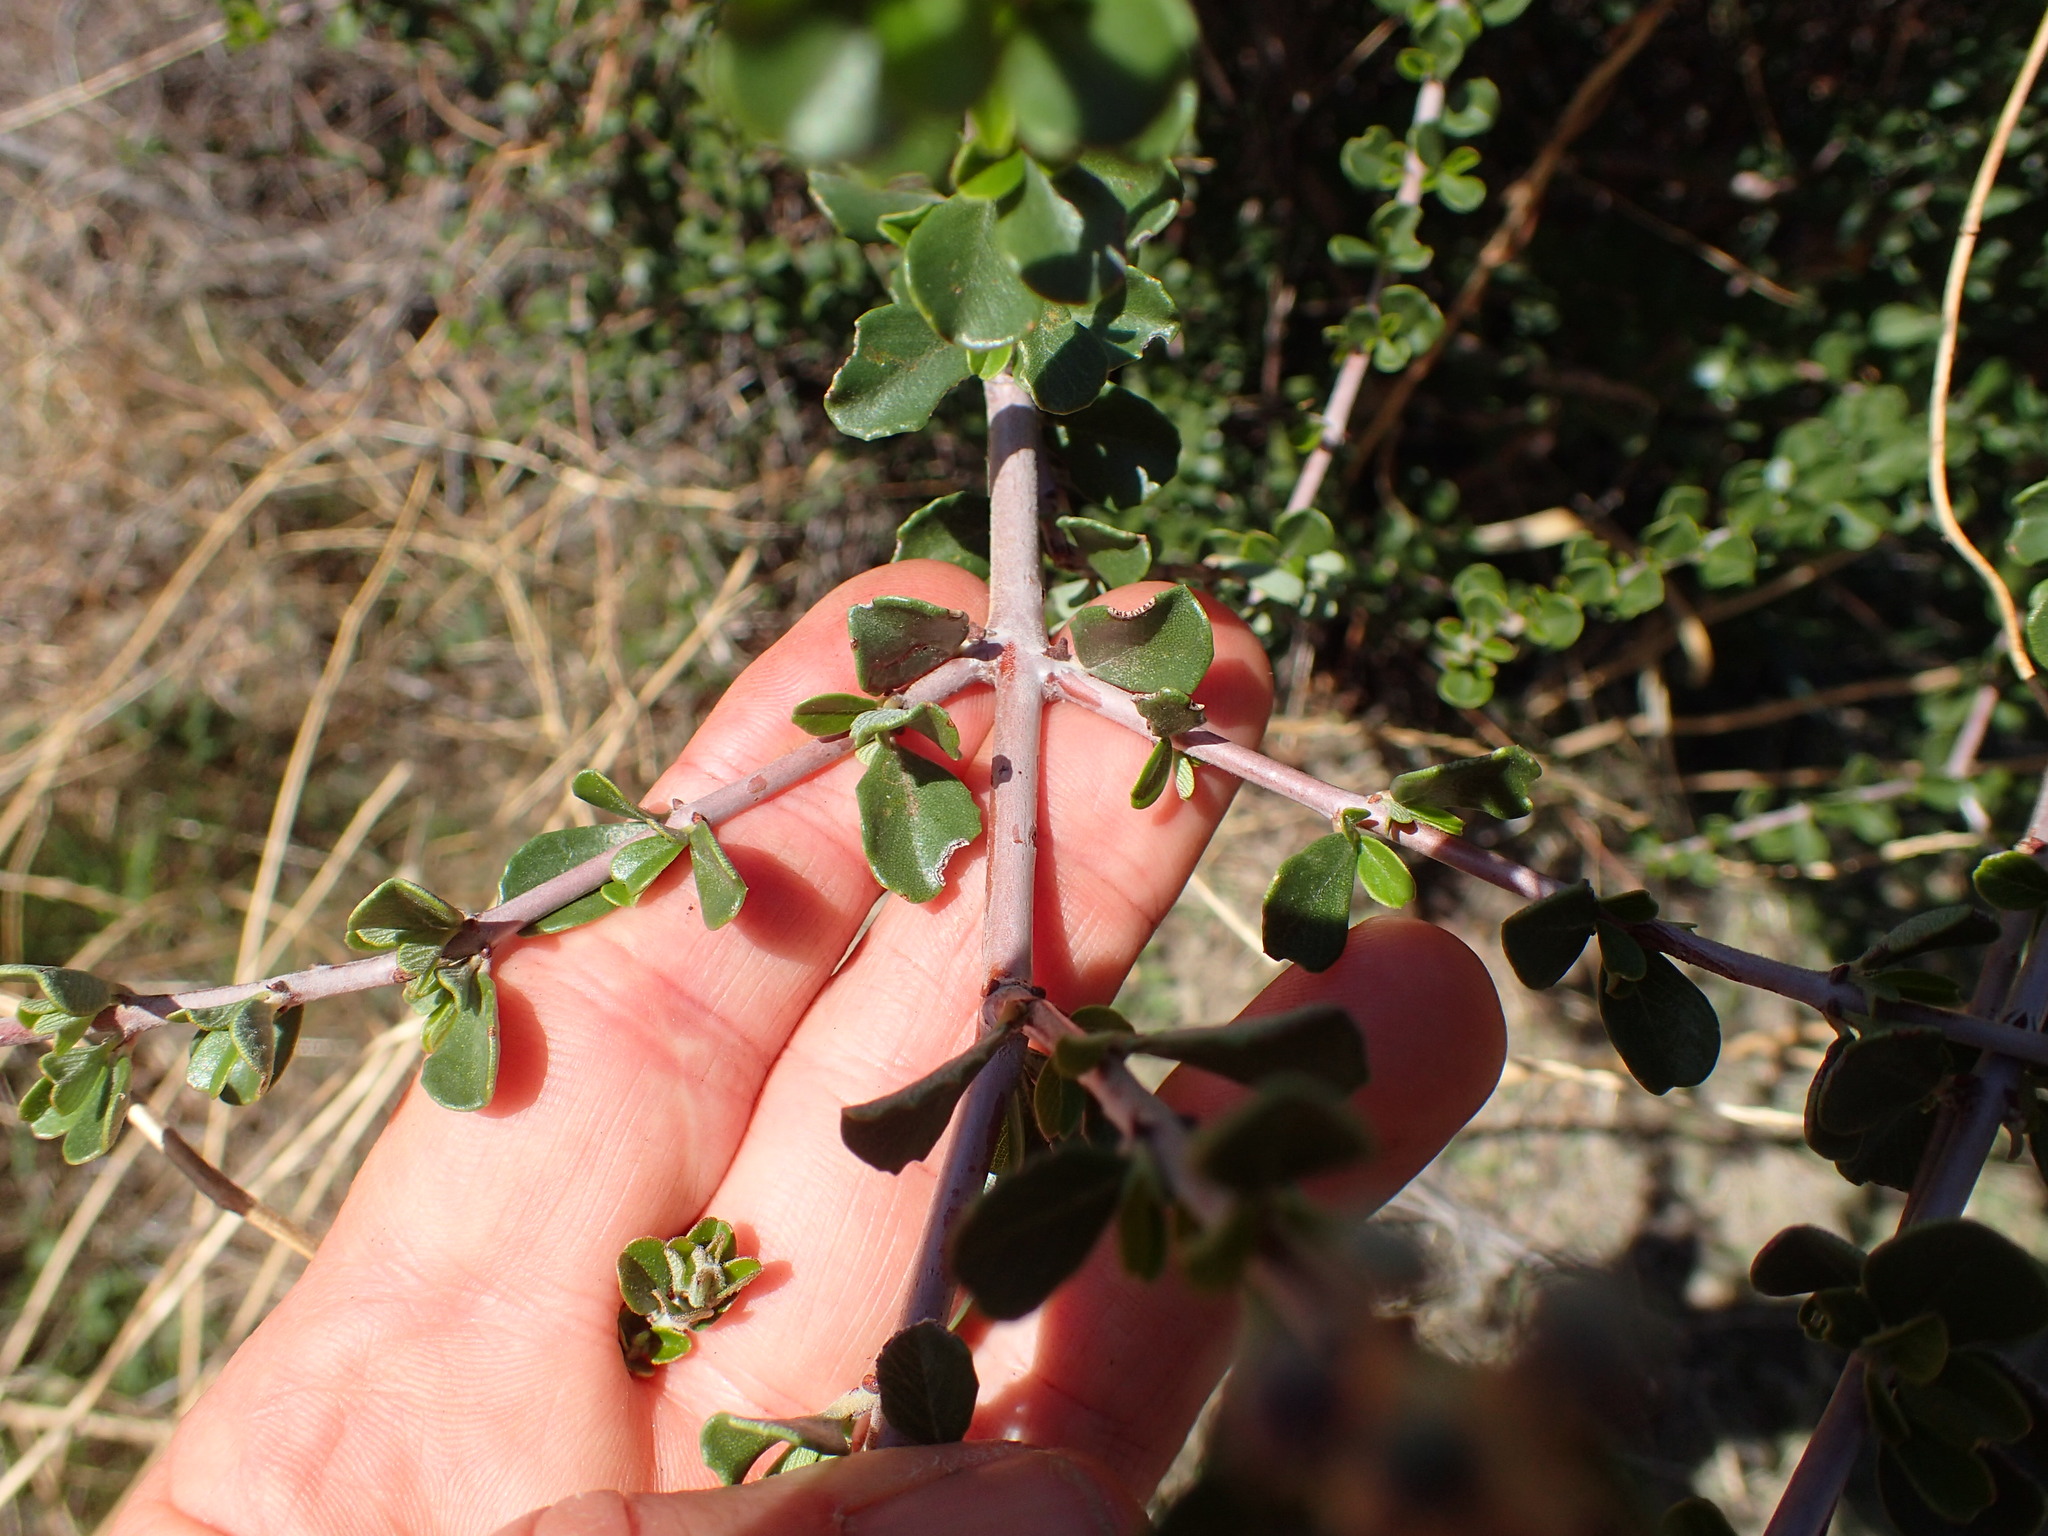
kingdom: Plantae
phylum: Tracheophyta
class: Magnoliopsida
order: Rosales
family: Rhamnaceae
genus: Ceanothus
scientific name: Ceanothus cuneatus
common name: Cuneate ceanothus
